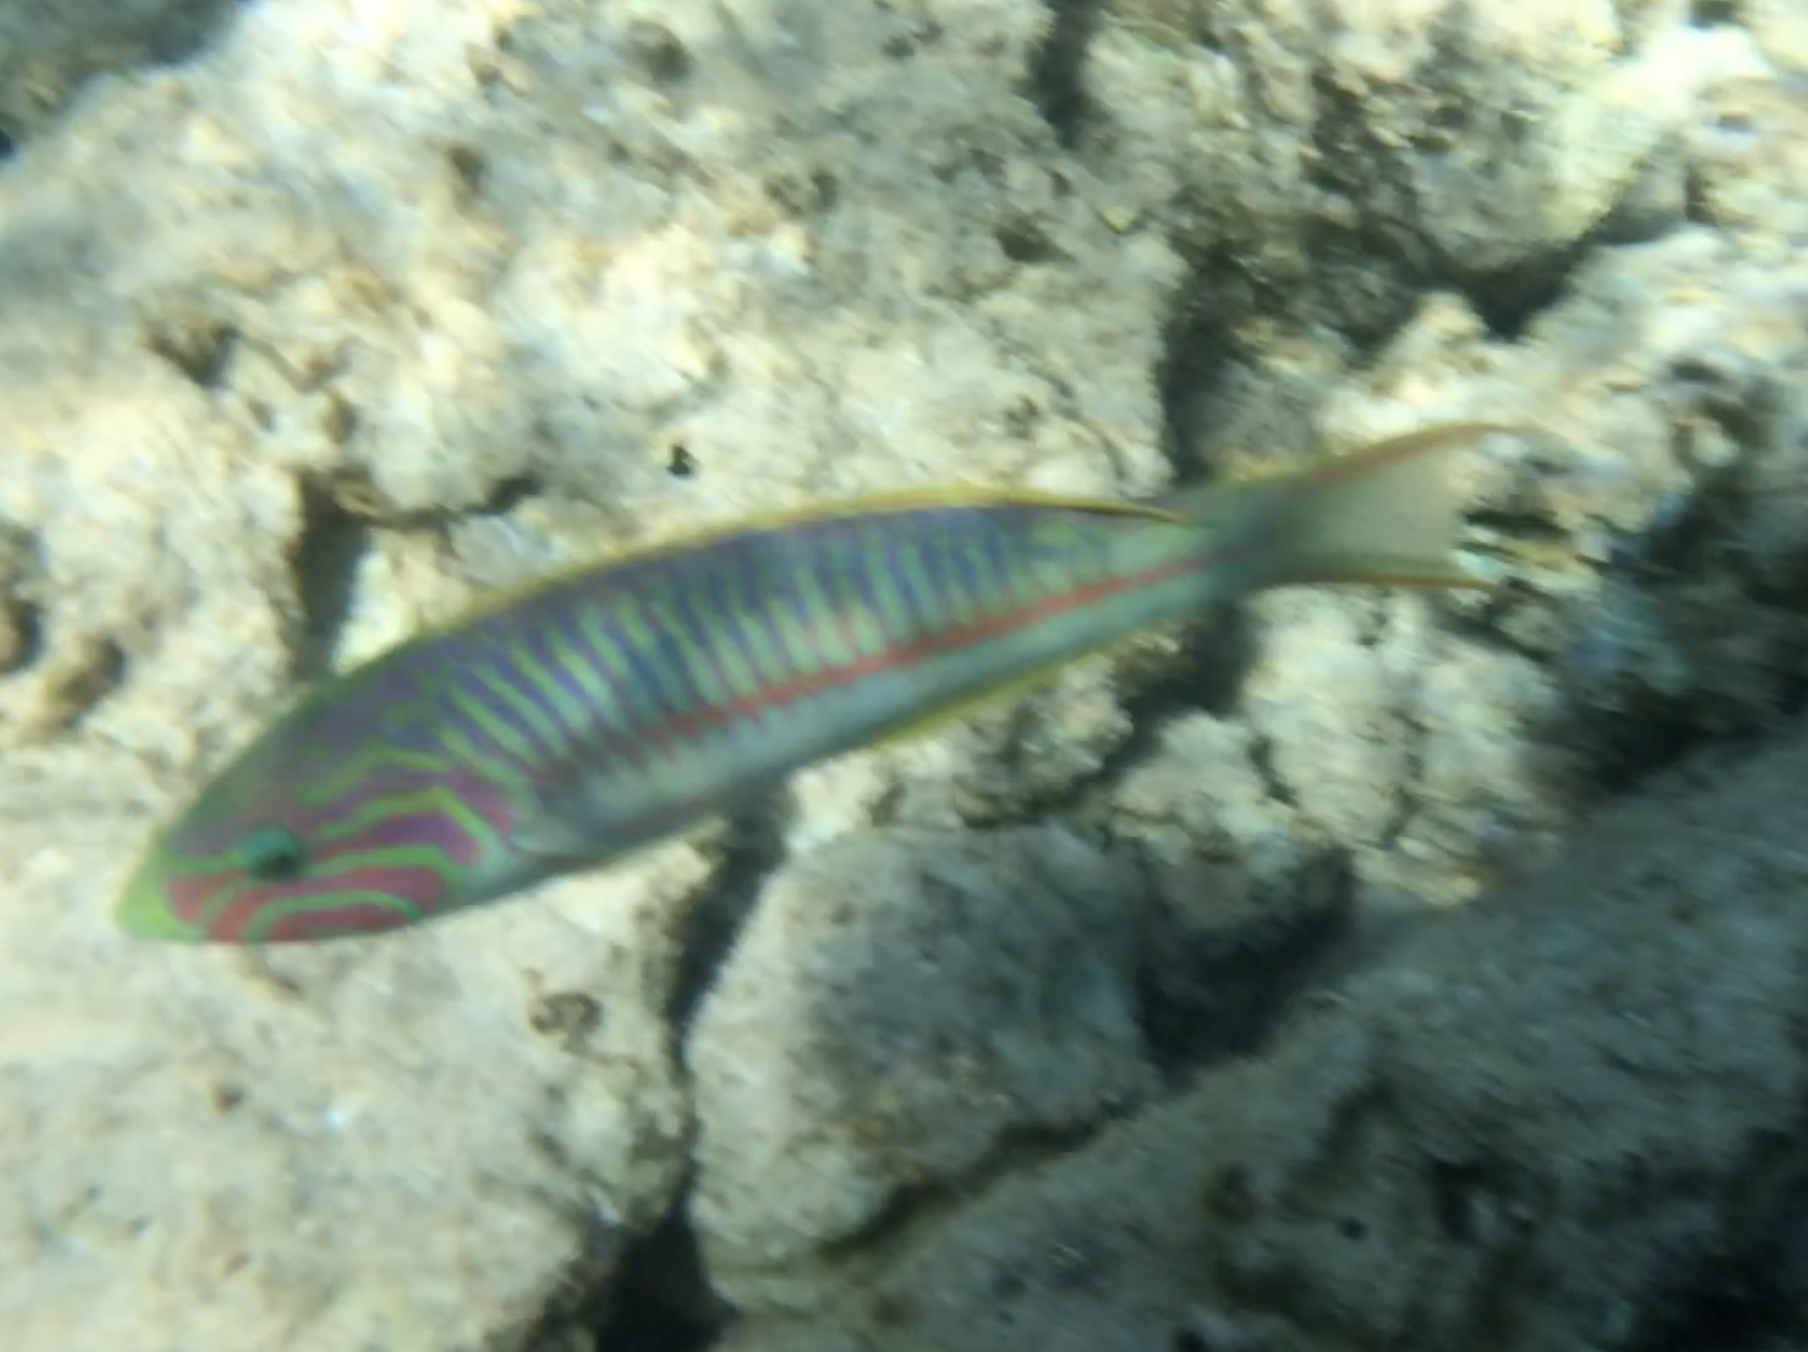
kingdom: Animalia
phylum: Chordata
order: Perciformes
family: Labridae
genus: Thalassoma
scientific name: Thalassoma rueppellii
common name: Klunzinger's wrasse
